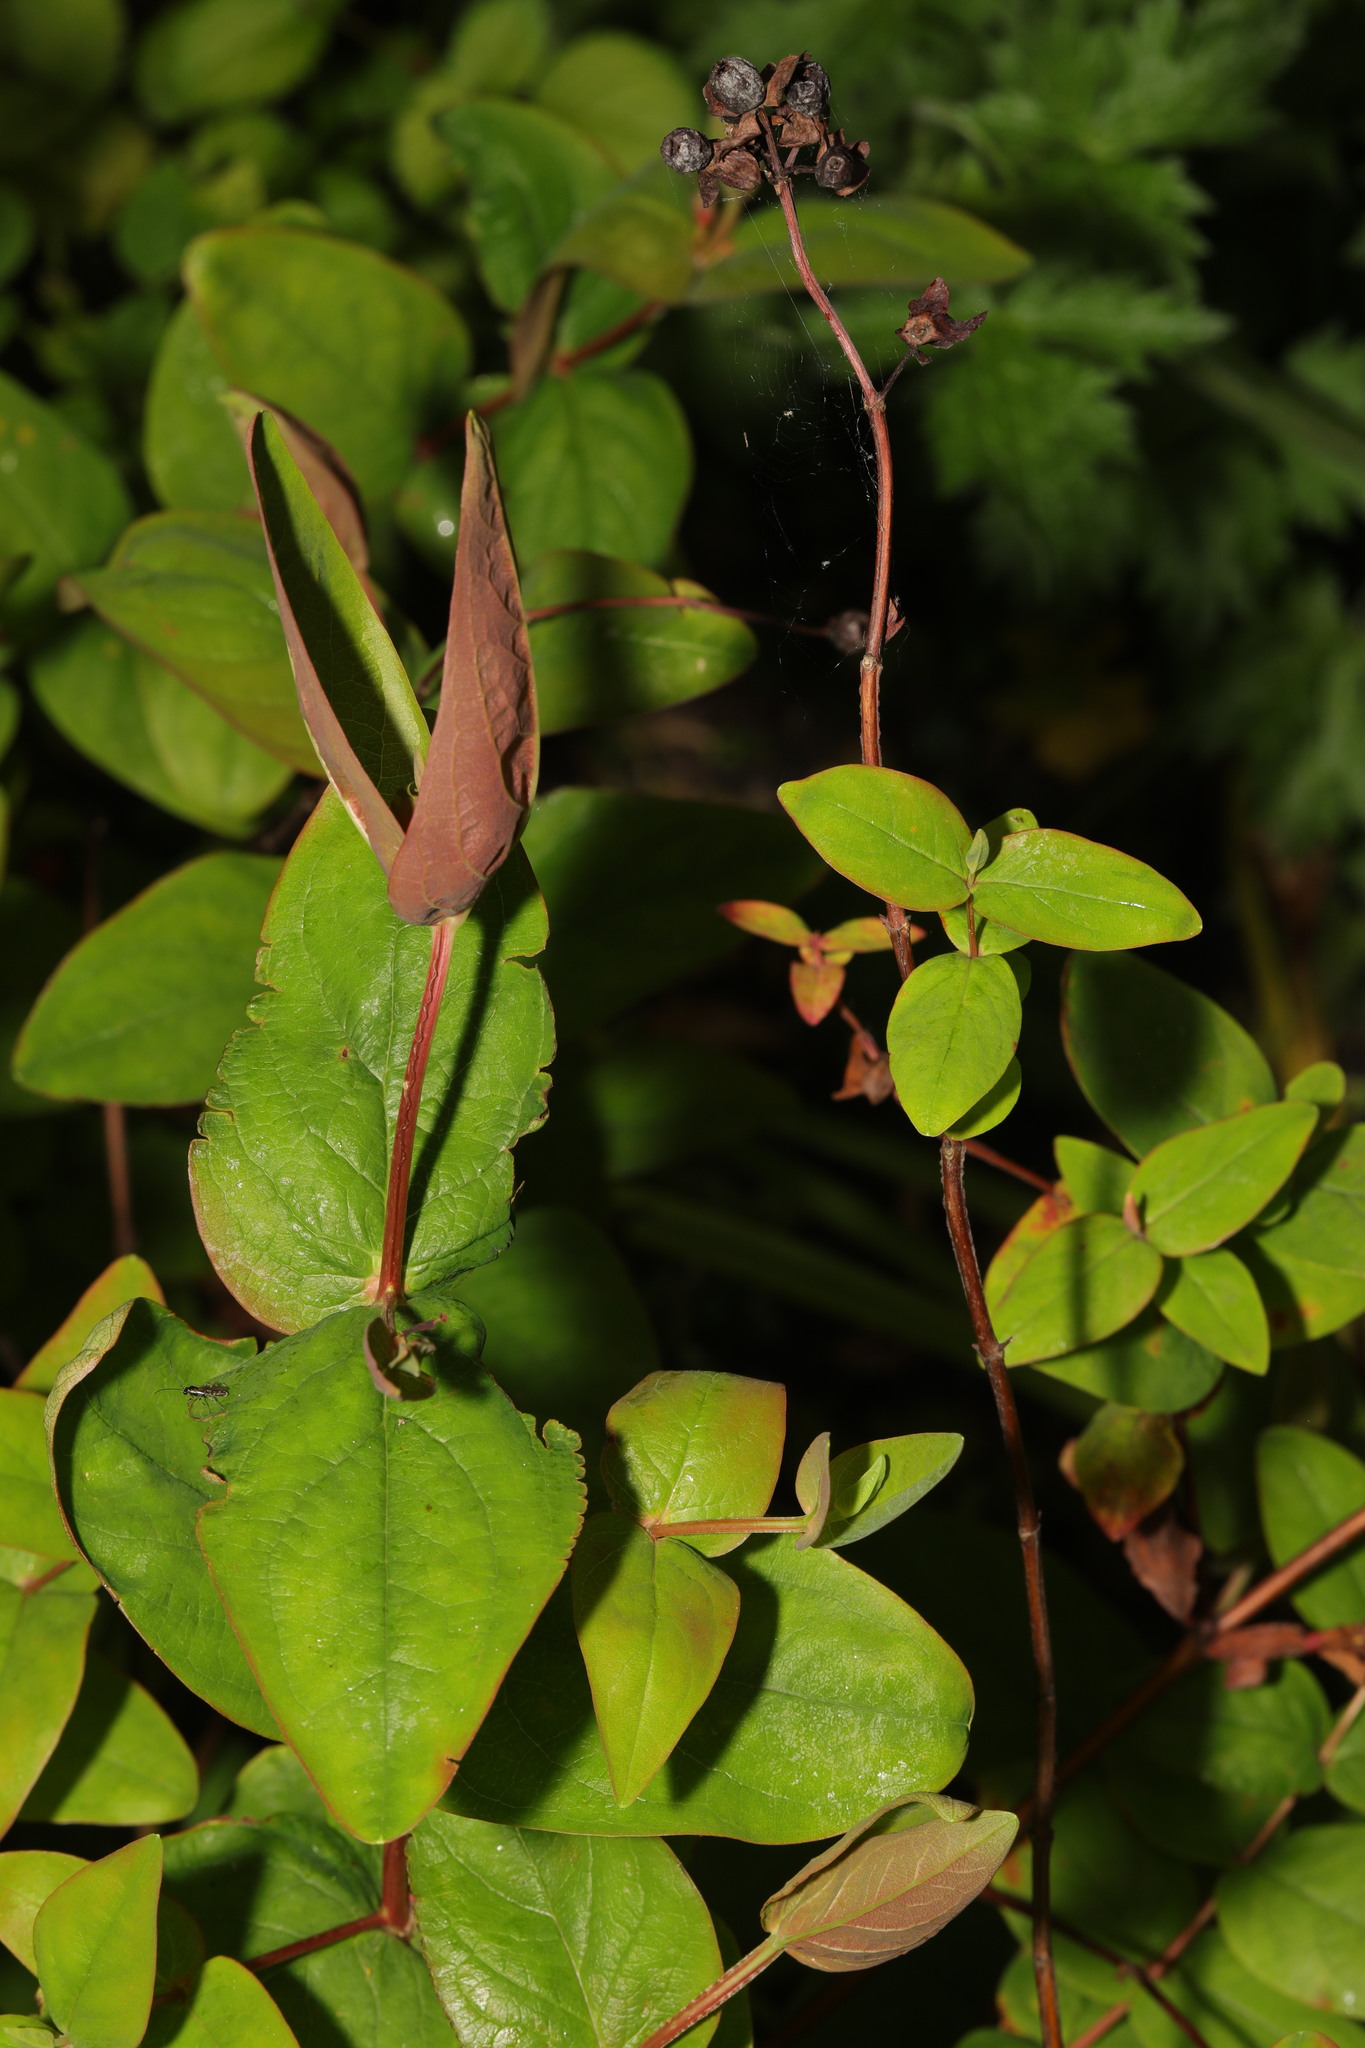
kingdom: Plantae
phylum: Tracheophyta
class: Magnoliopsida
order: Malpighiales
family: Hypericaceae
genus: Hypericum
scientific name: Hypericum androsaemum
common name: Sweet-amber
